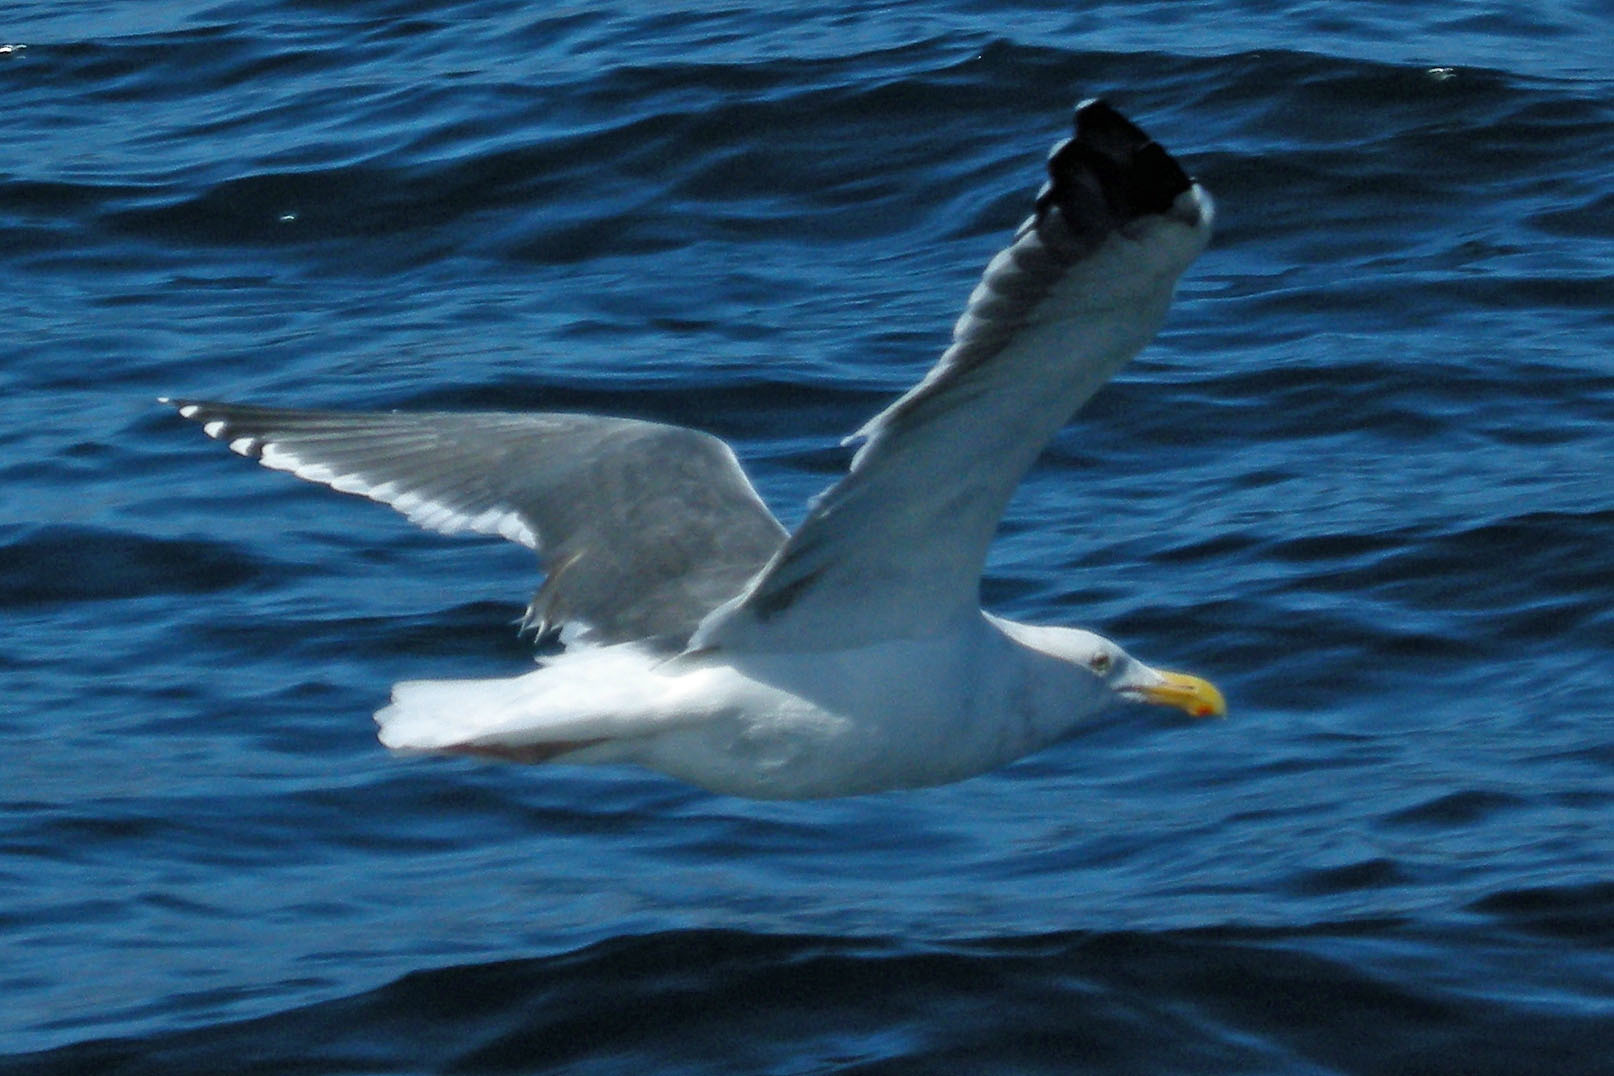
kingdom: Animalia
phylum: Chordata
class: Aves
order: Charadriiformes
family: Laridae
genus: Larus
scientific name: Larus occidentalis
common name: Western gull
